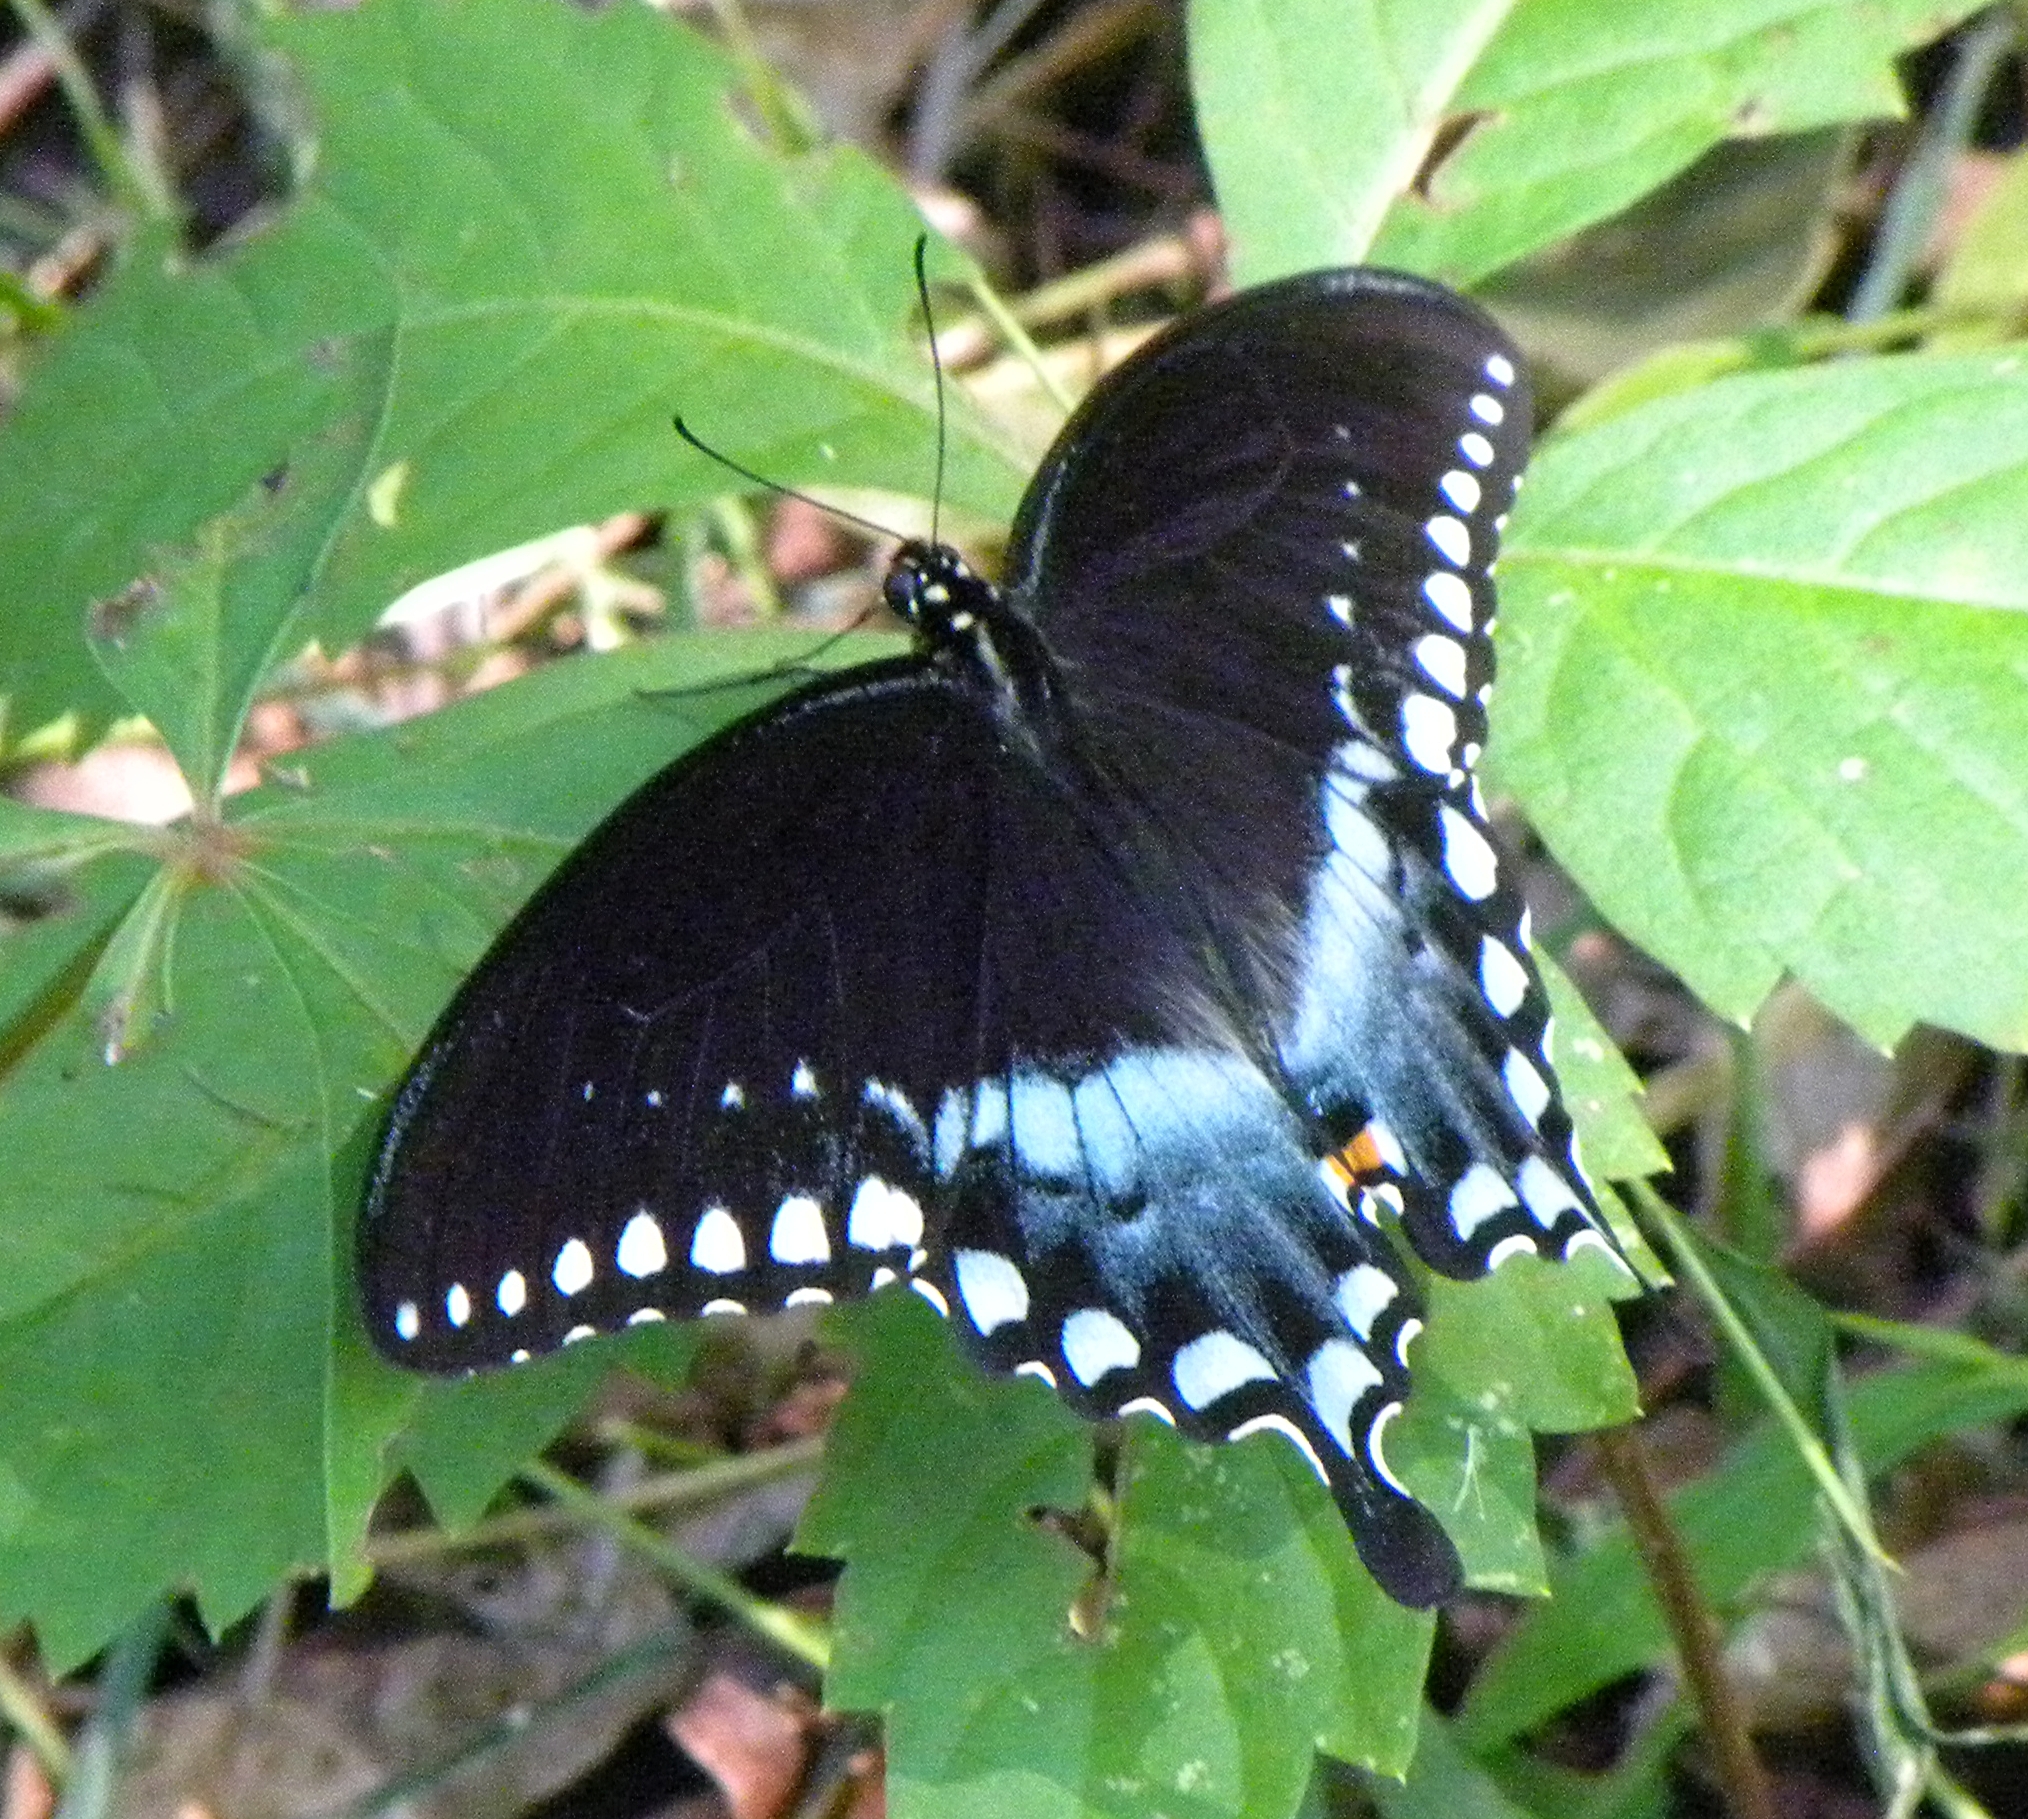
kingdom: Animalia
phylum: Arthropoda
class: Insecta
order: Lepidoptera
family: Papilionidae
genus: Papilio
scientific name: Papilio troilus
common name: Spicebush swallowtail
